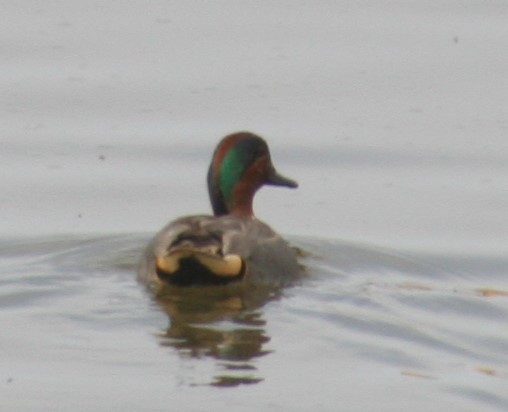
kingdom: Animalia
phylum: Chordata
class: Aves
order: Anseriformes
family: Anatidae
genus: Anas
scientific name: Anas crecca
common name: Eurasian teal
